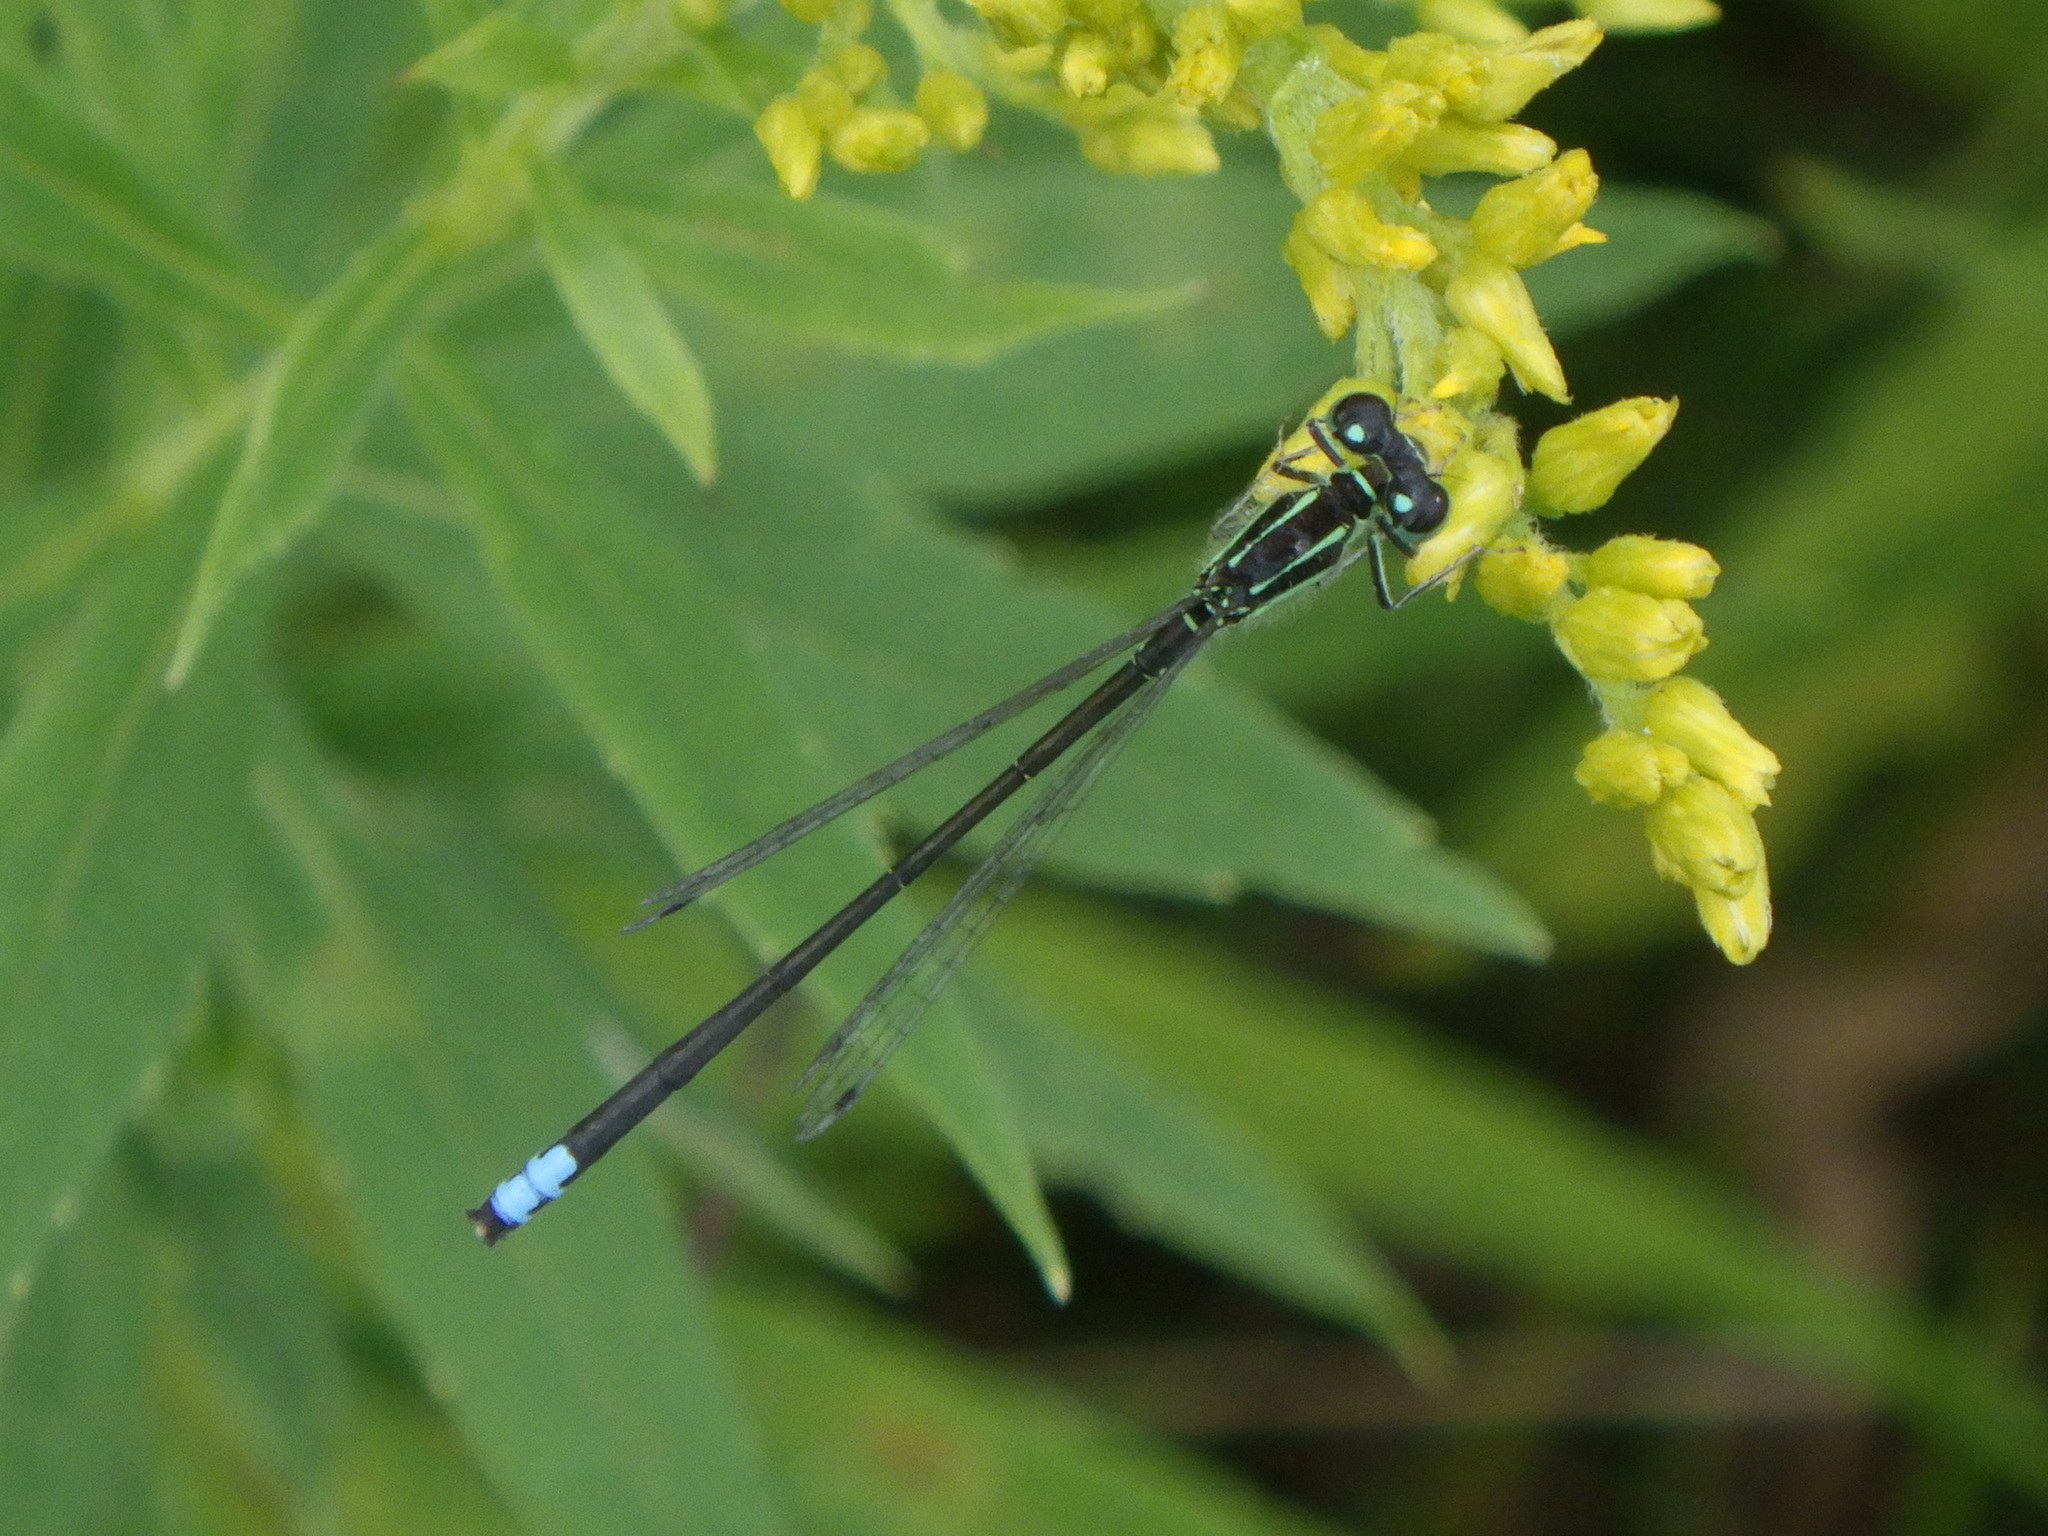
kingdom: Animalia
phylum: Arthropoda
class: Insecta
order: Odonata
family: Coenagrionidae
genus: Ischnura
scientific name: Ischnura verticalis
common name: Eastern forktail
